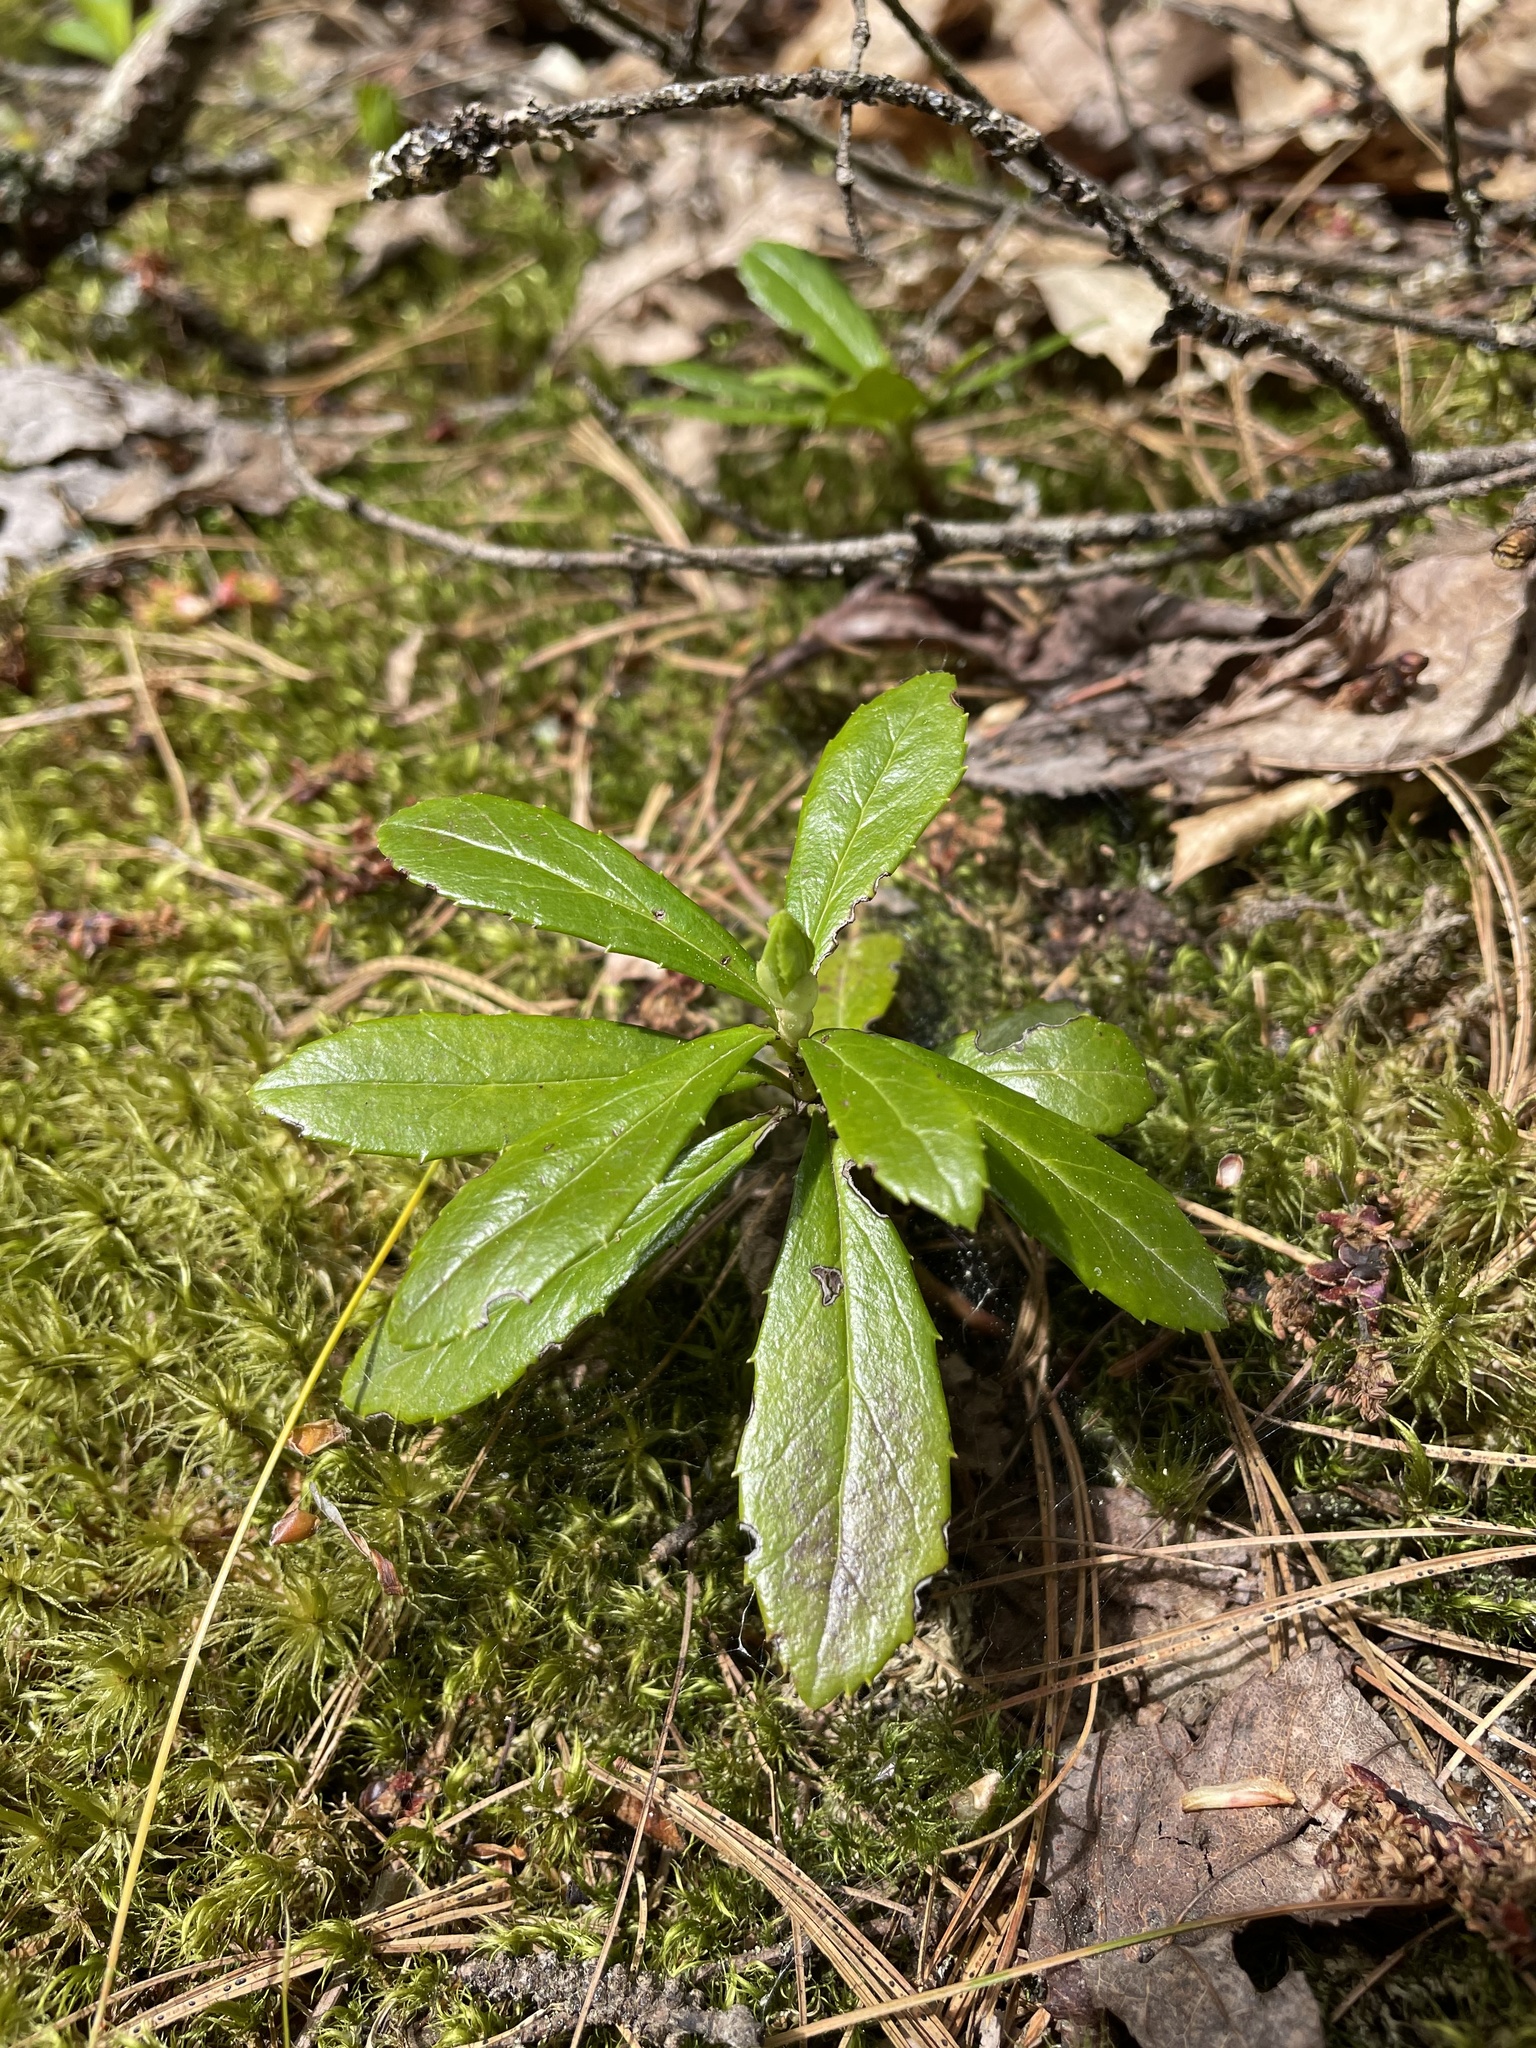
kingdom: Plantae
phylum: Tracheophyta
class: Magnoliopsida
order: Ericales
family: Ericaceae
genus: Chimaphila
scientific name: Chimaphila umbellata
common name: Pipsissewa
